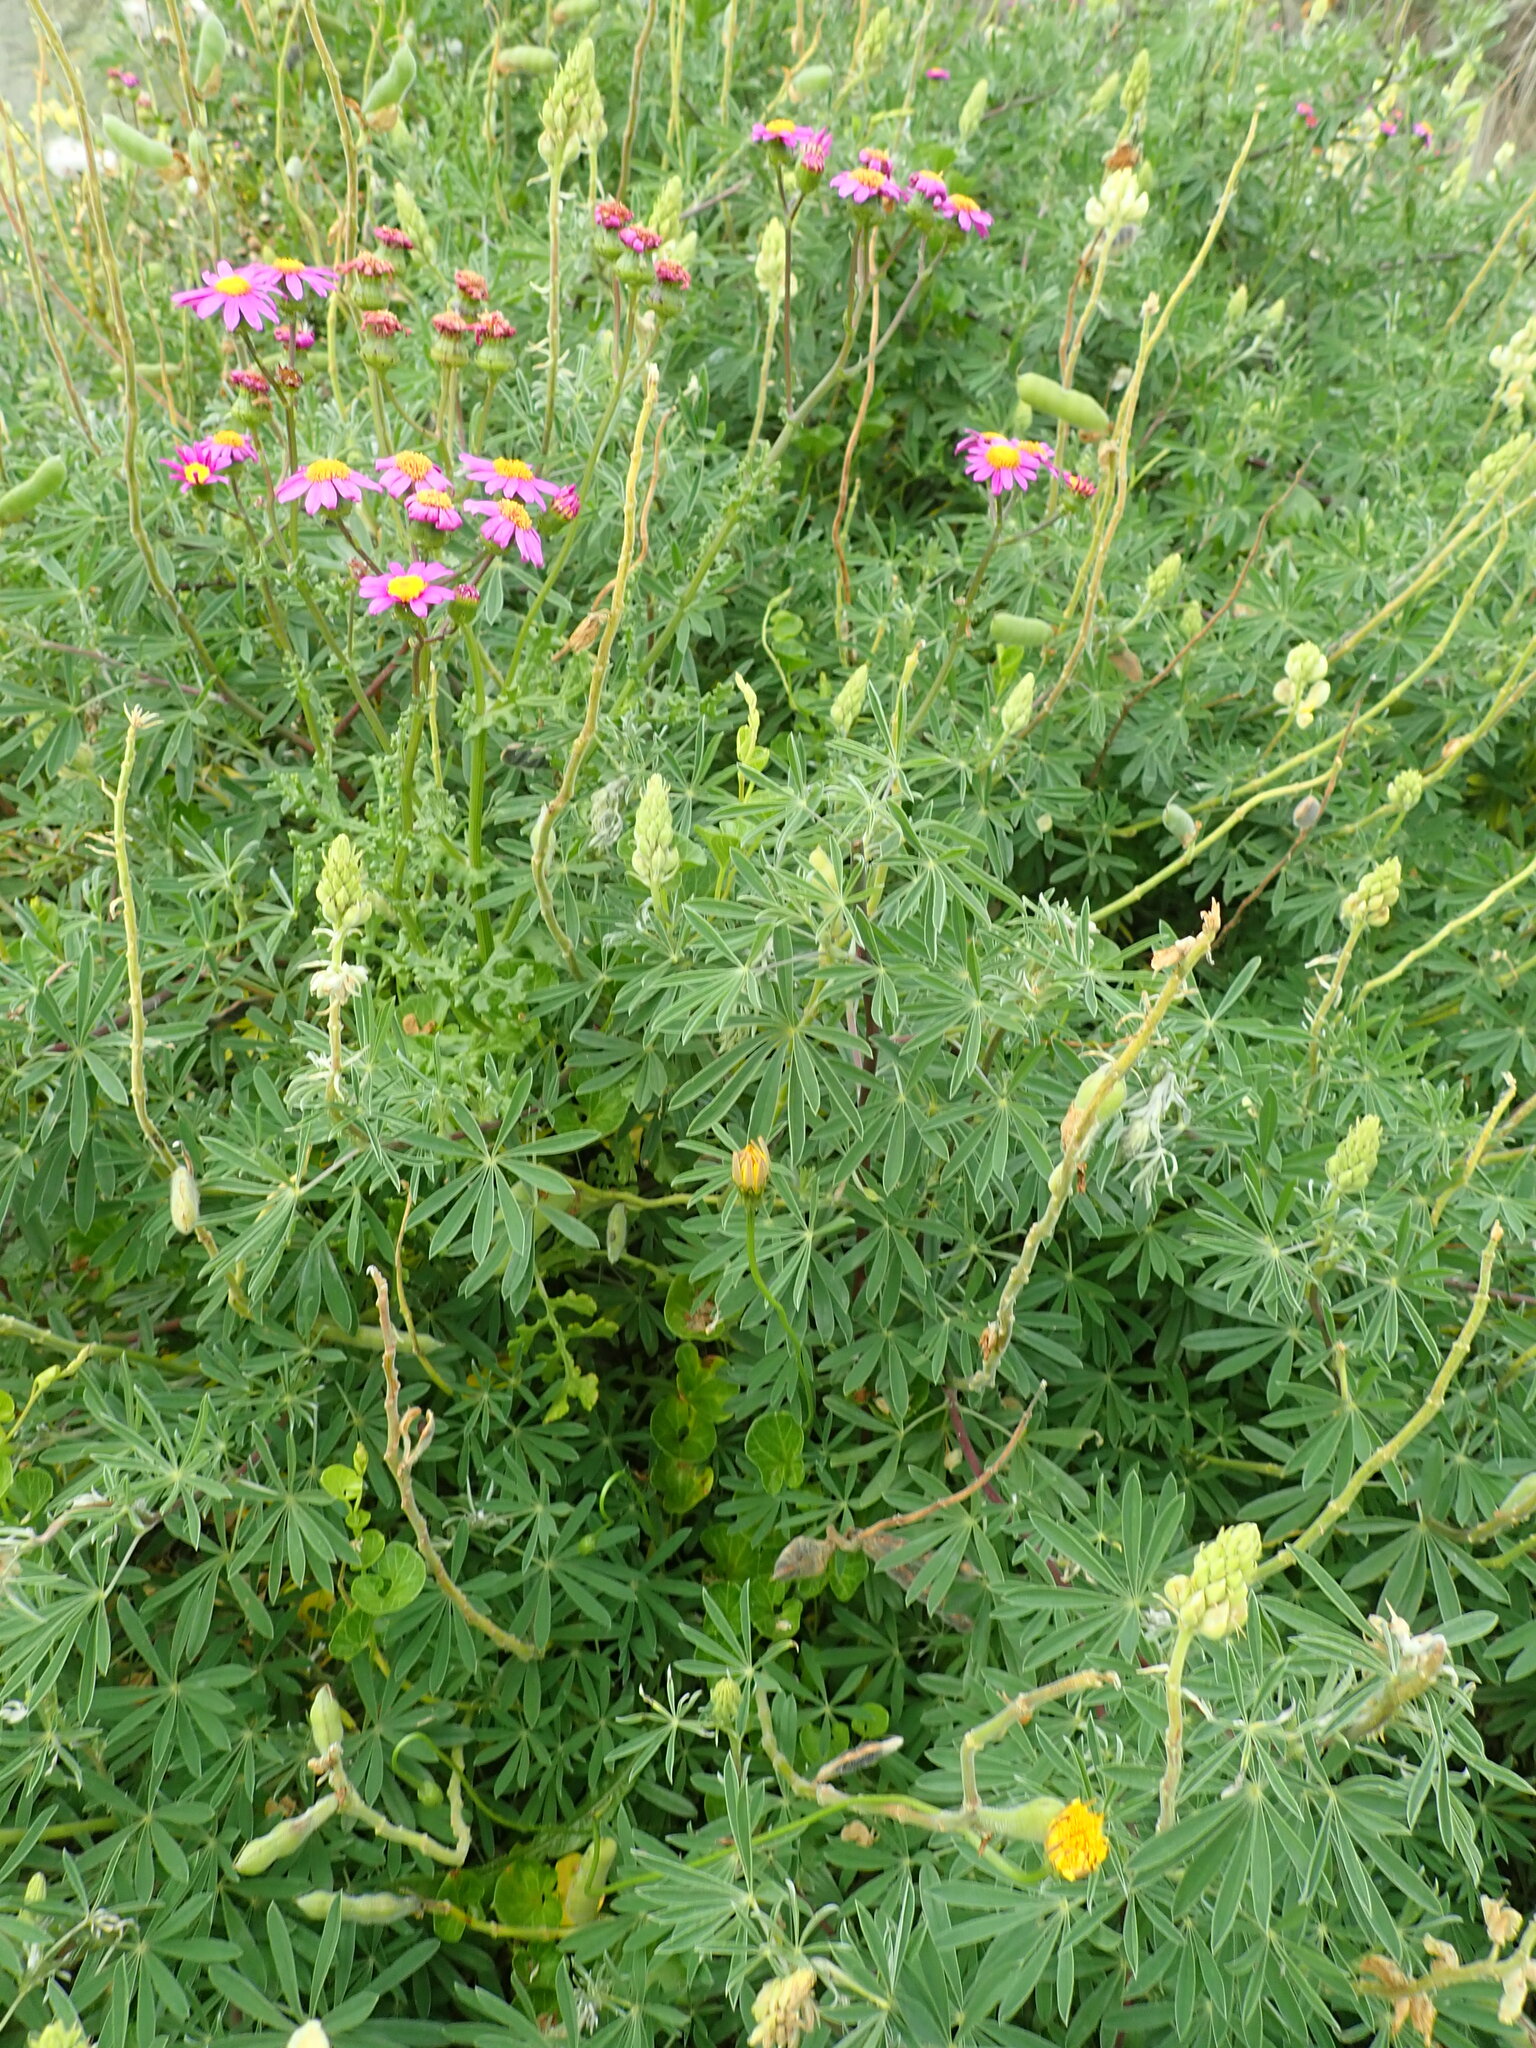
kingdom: Plantae
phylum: Tracheophyta
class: Magnoliopsida
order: Asterales
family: Asteraceae
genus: Senecio
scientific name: Senecio elegans
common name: Purple groundsel
